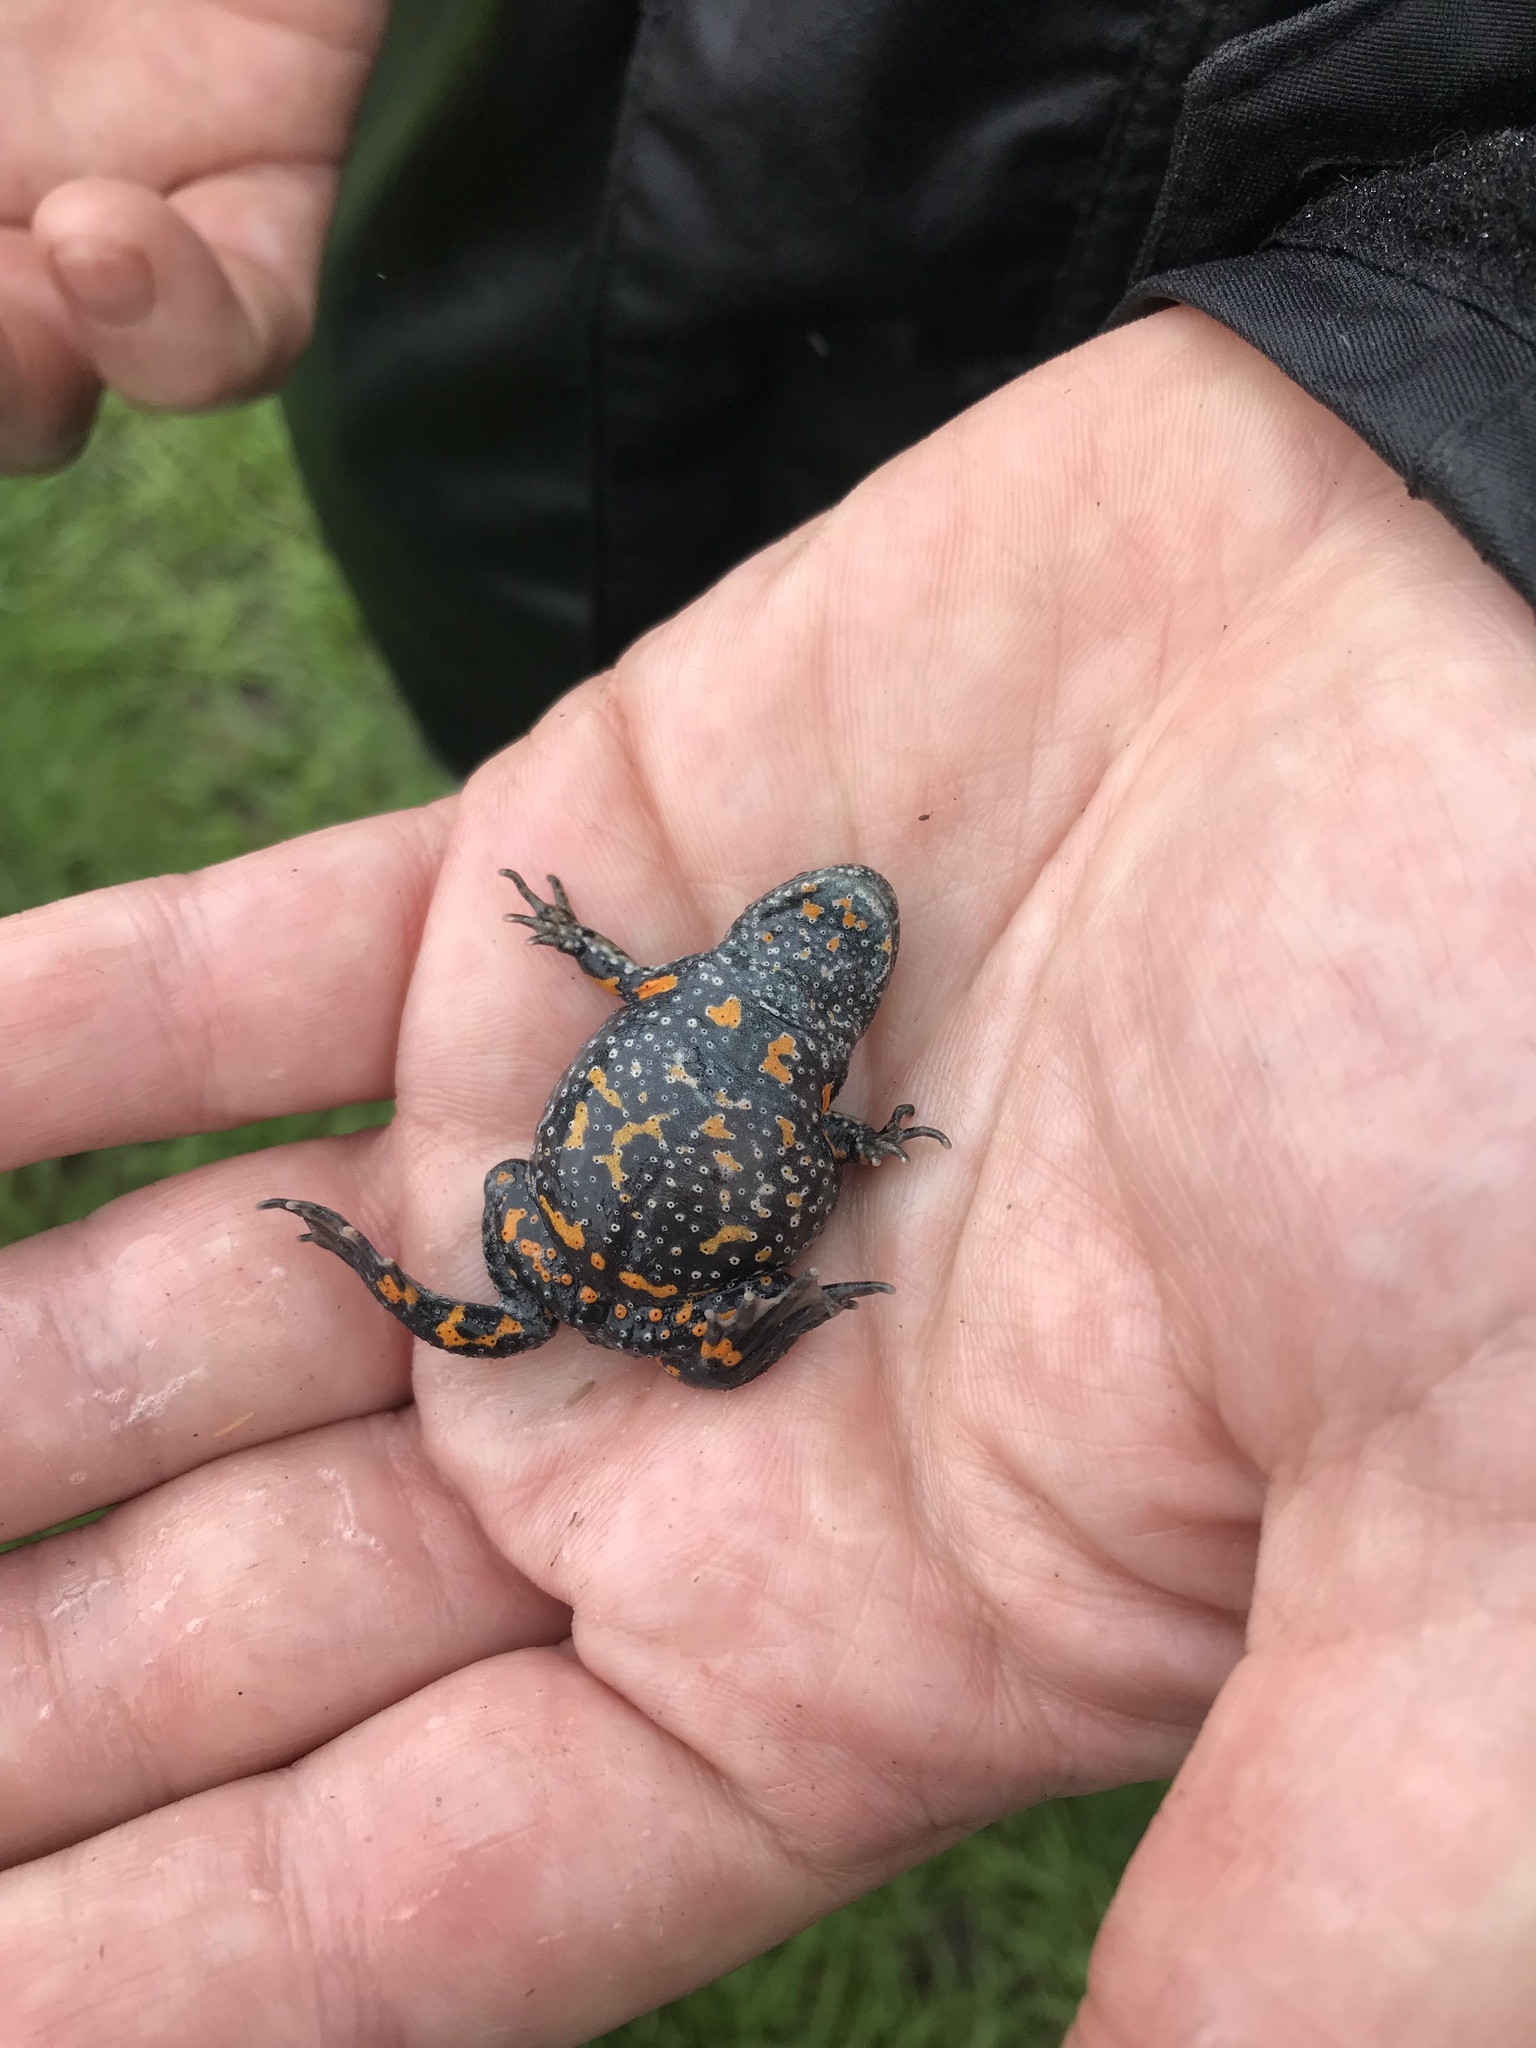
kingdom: Animalia
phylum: Chordata
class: Amphibia
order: Anura
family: Bombinatoridae
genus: Bombina
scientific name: Bombina bombina
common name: Fire-bellied toad
